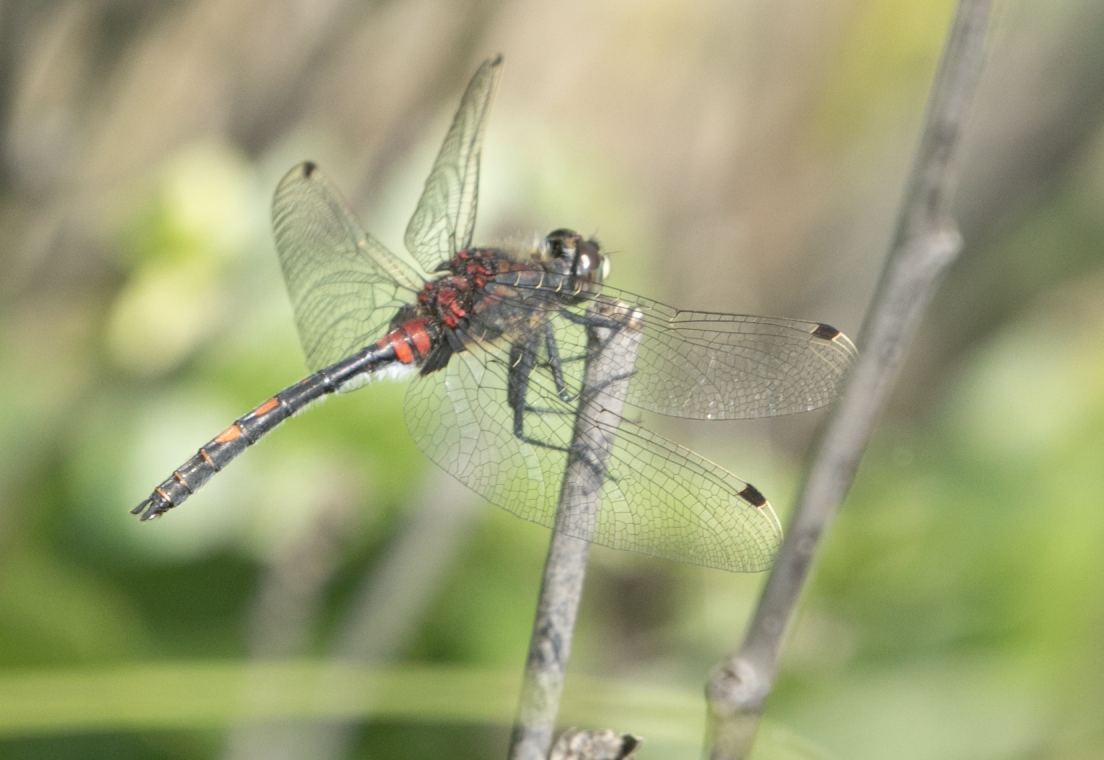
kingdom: Animalia
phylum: Arthropoda
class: Insecta
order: Odonata
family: Libellulidae
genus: Leucorrhinia
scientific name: Leucorrhinia dubia
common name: White-faced darter
